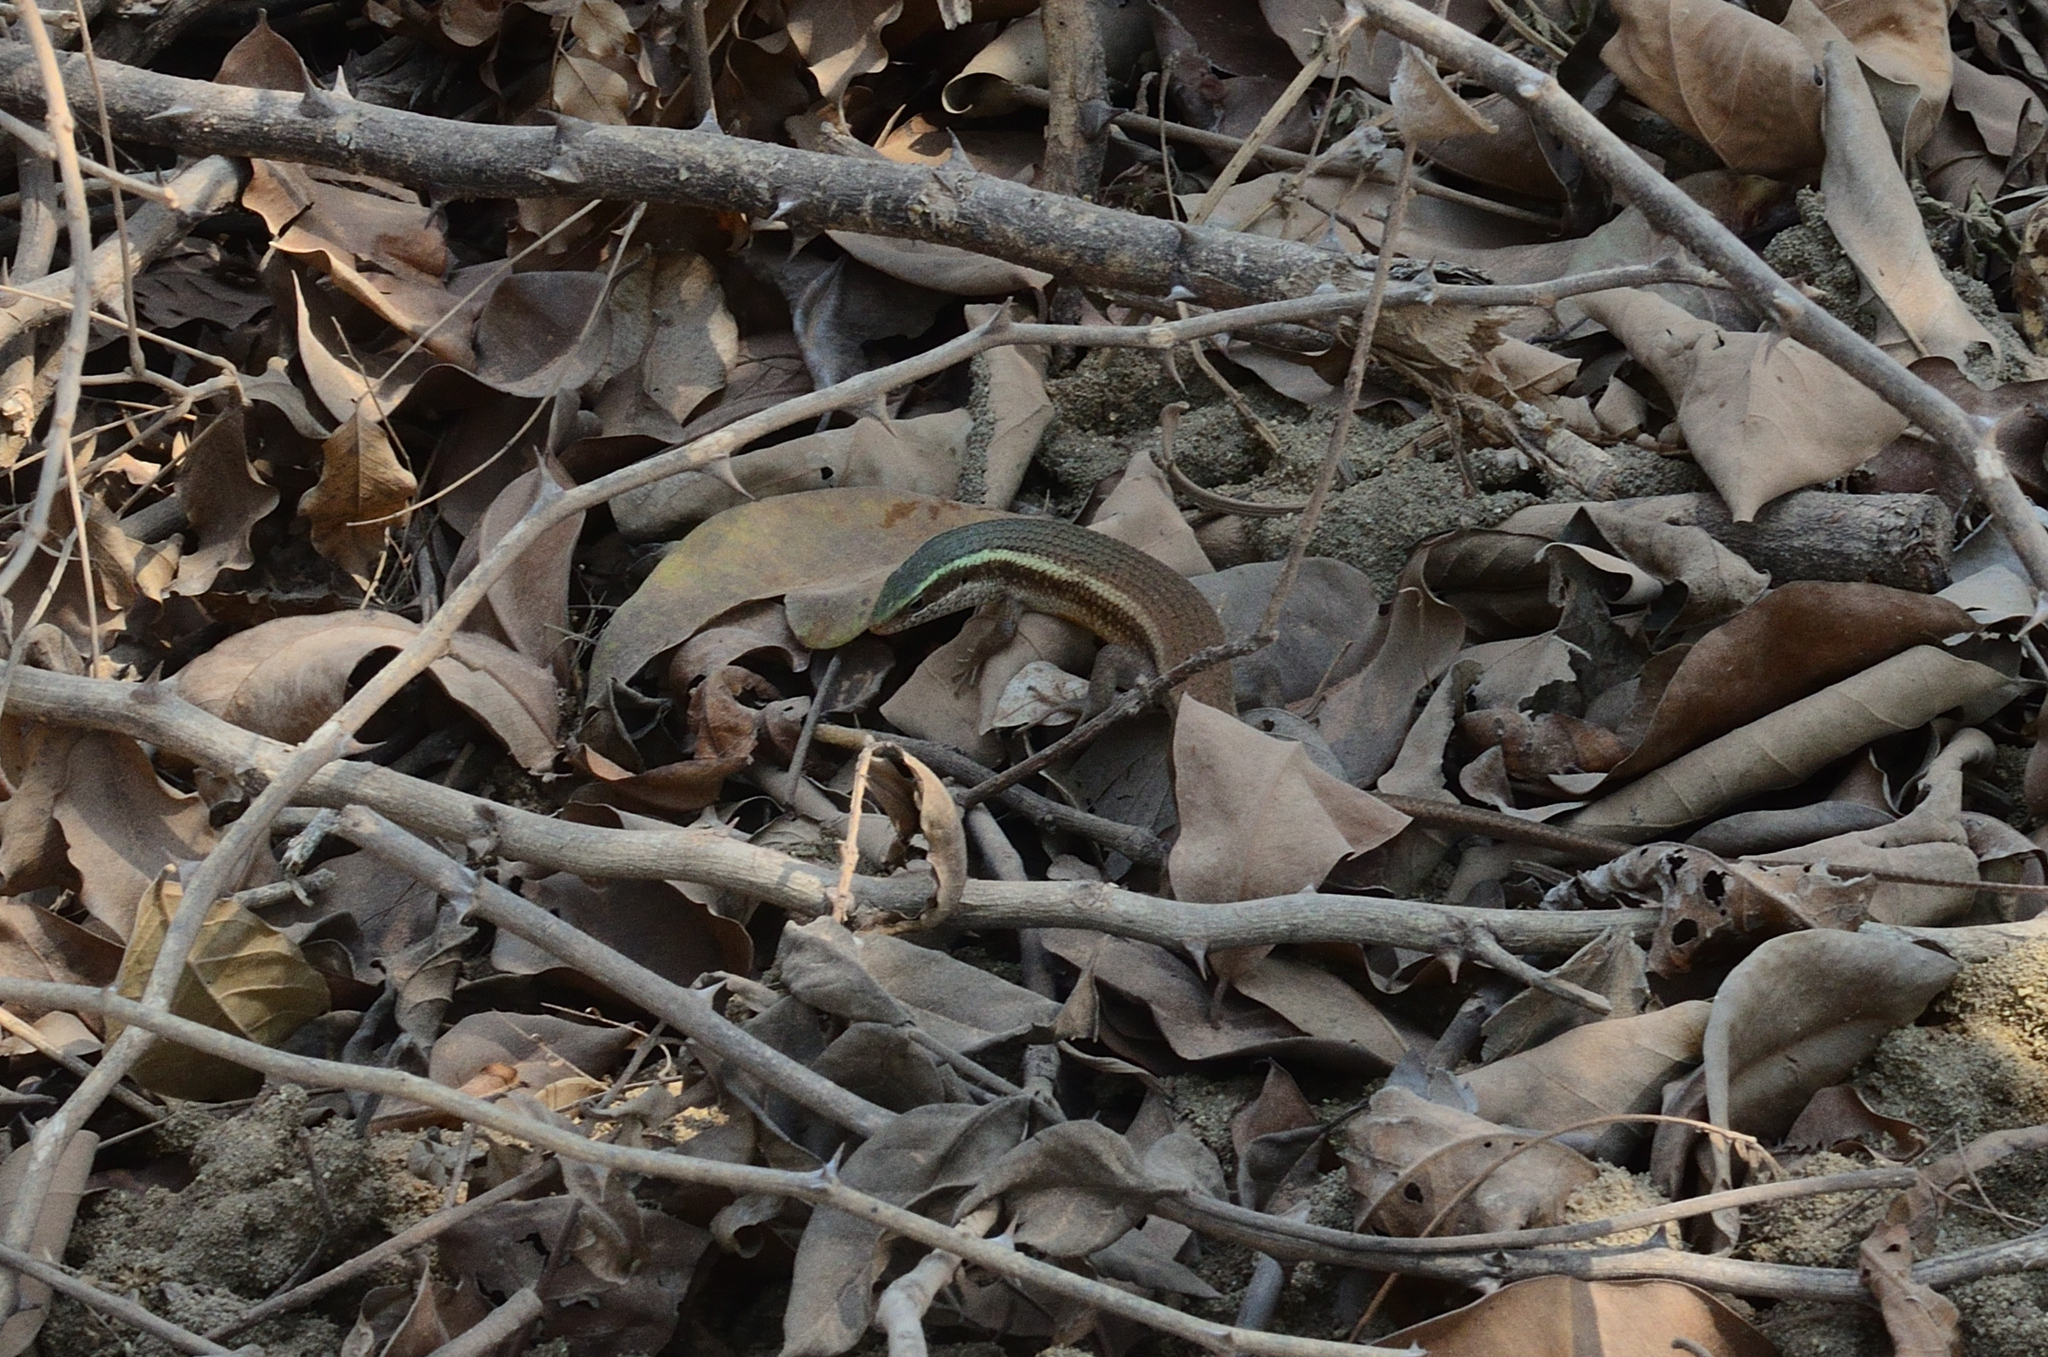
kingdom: Animalia
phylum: Chordata
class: Squamata
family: Scincidae
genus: Eutropis
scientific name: Eutropis carinata
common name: Keeled indian mabuya
